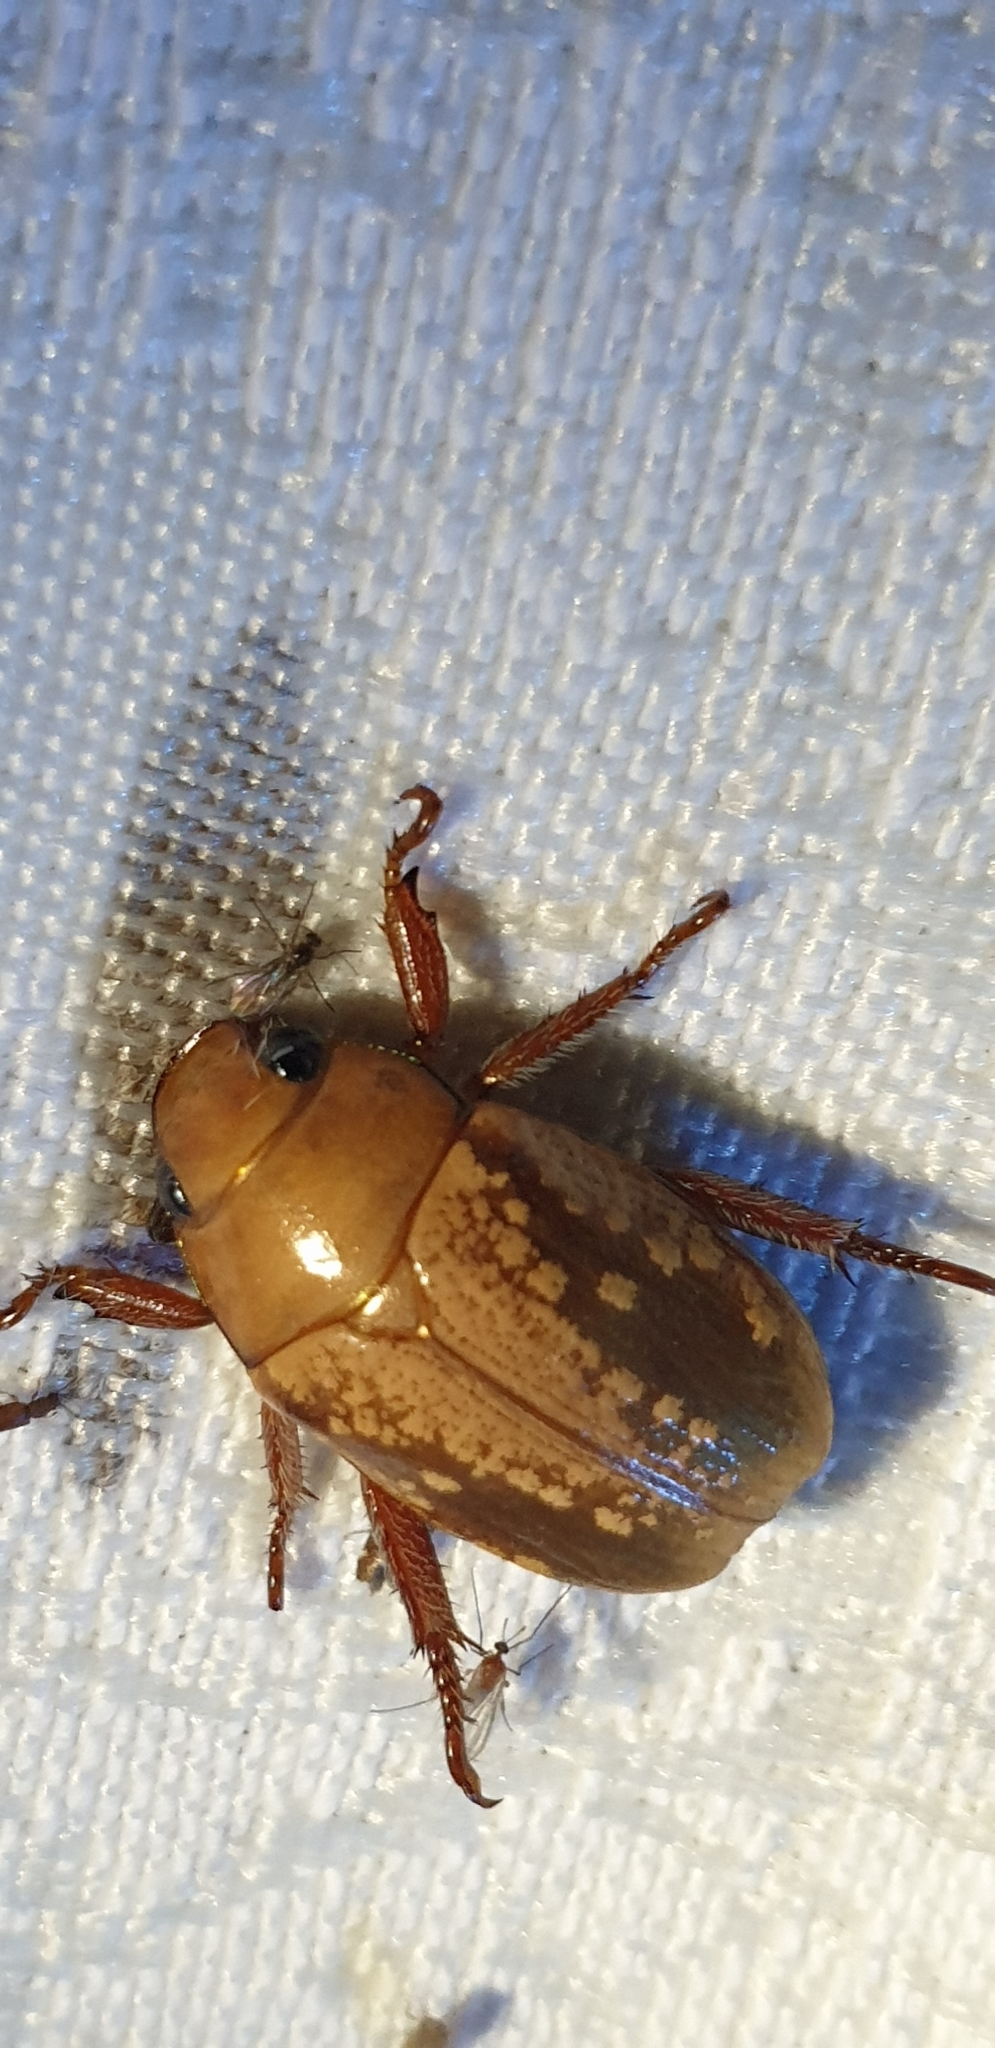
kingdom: Animalia
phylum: Arthropoda
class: Insecta
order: Coleoptera
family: Scarabaeidae
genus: Anoplognathus
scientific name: Anoplognathus concolor
